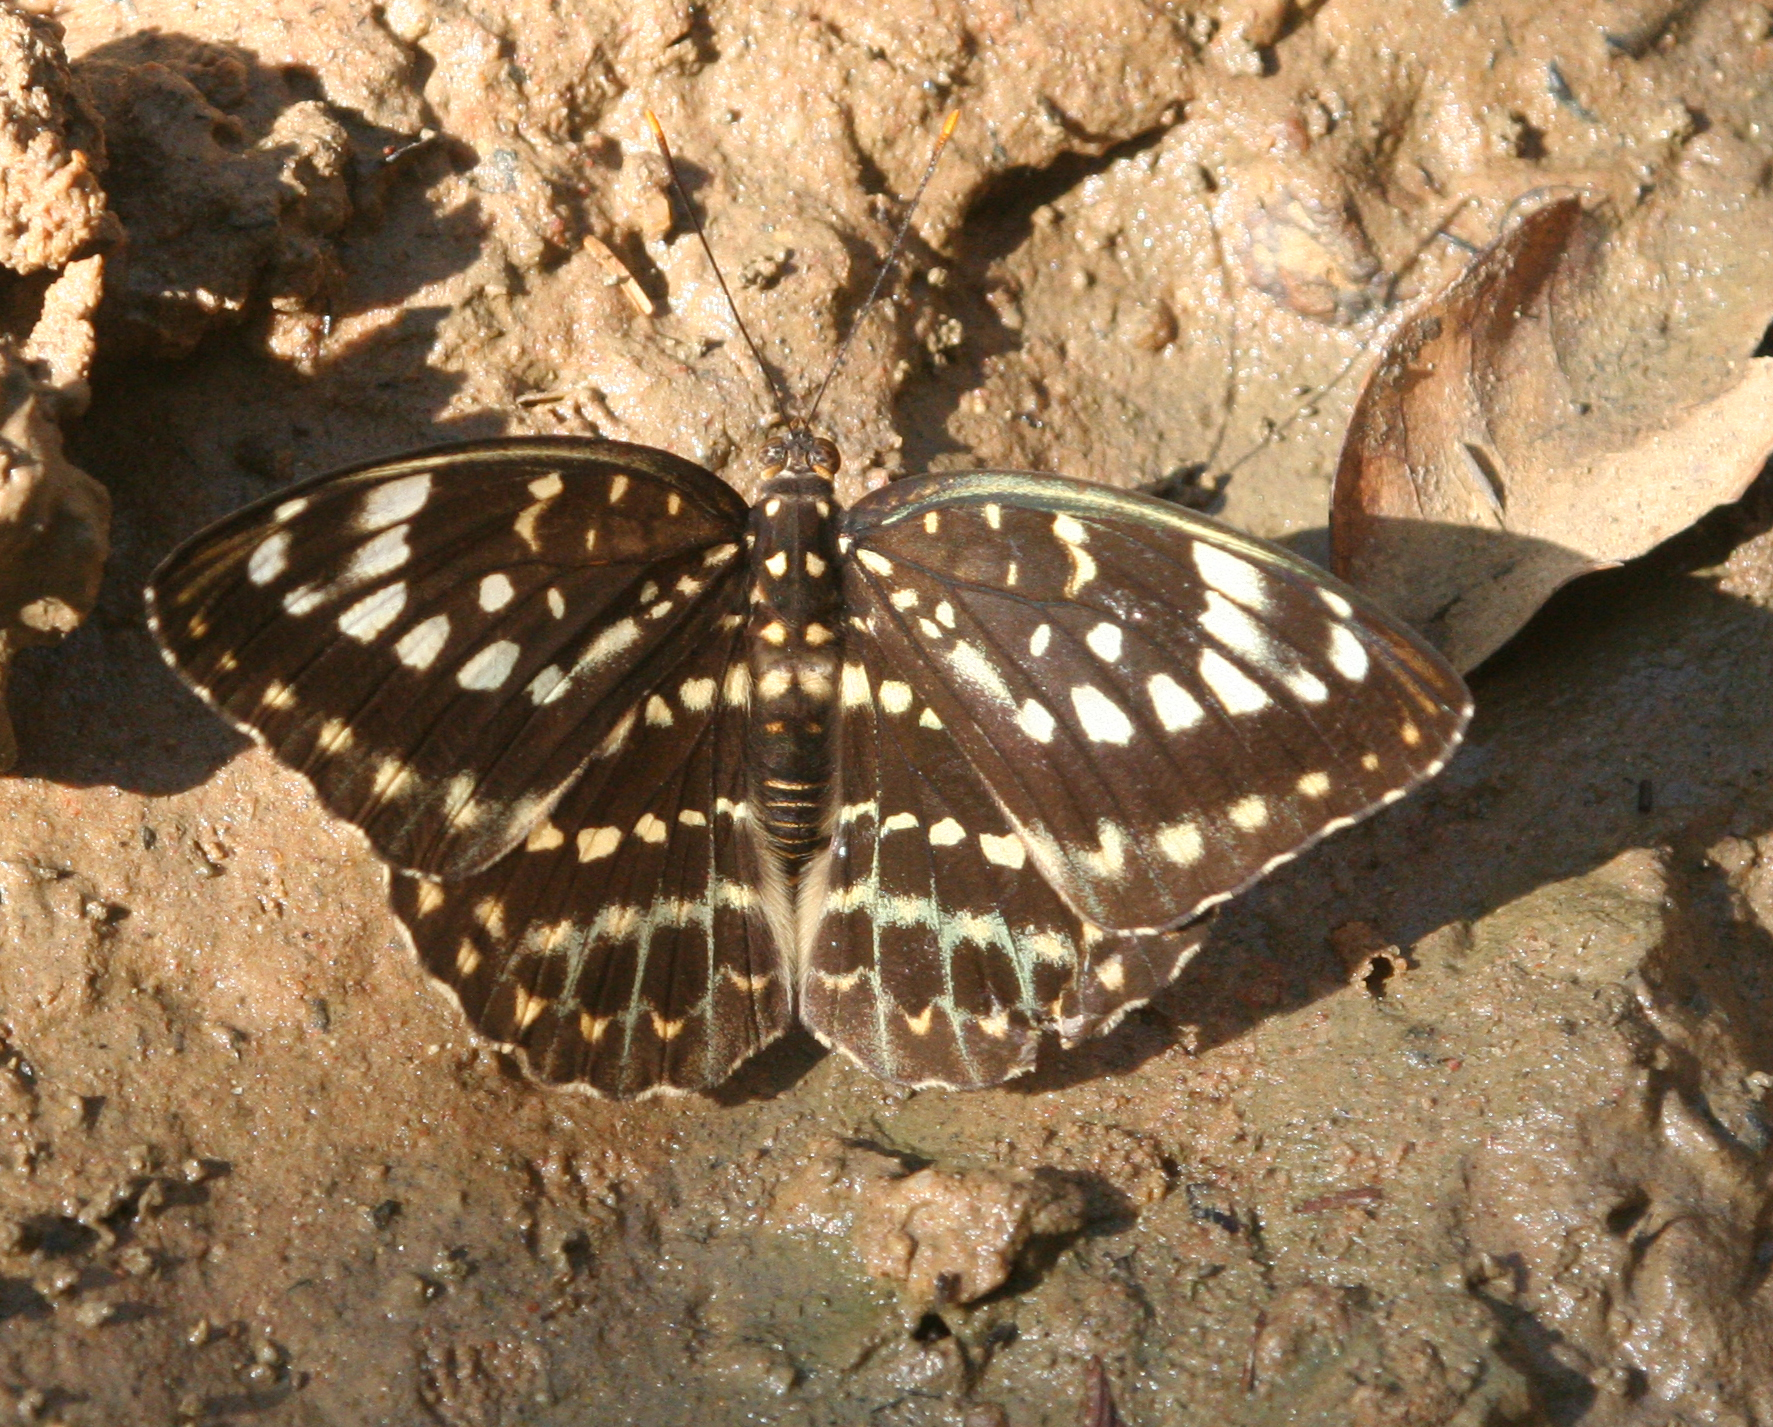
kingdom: Animalia
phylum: Arthropoda
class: Insecta
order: Lepidoptera
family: Nymphalidae
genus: Lexias
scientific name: Lexias pardalis
